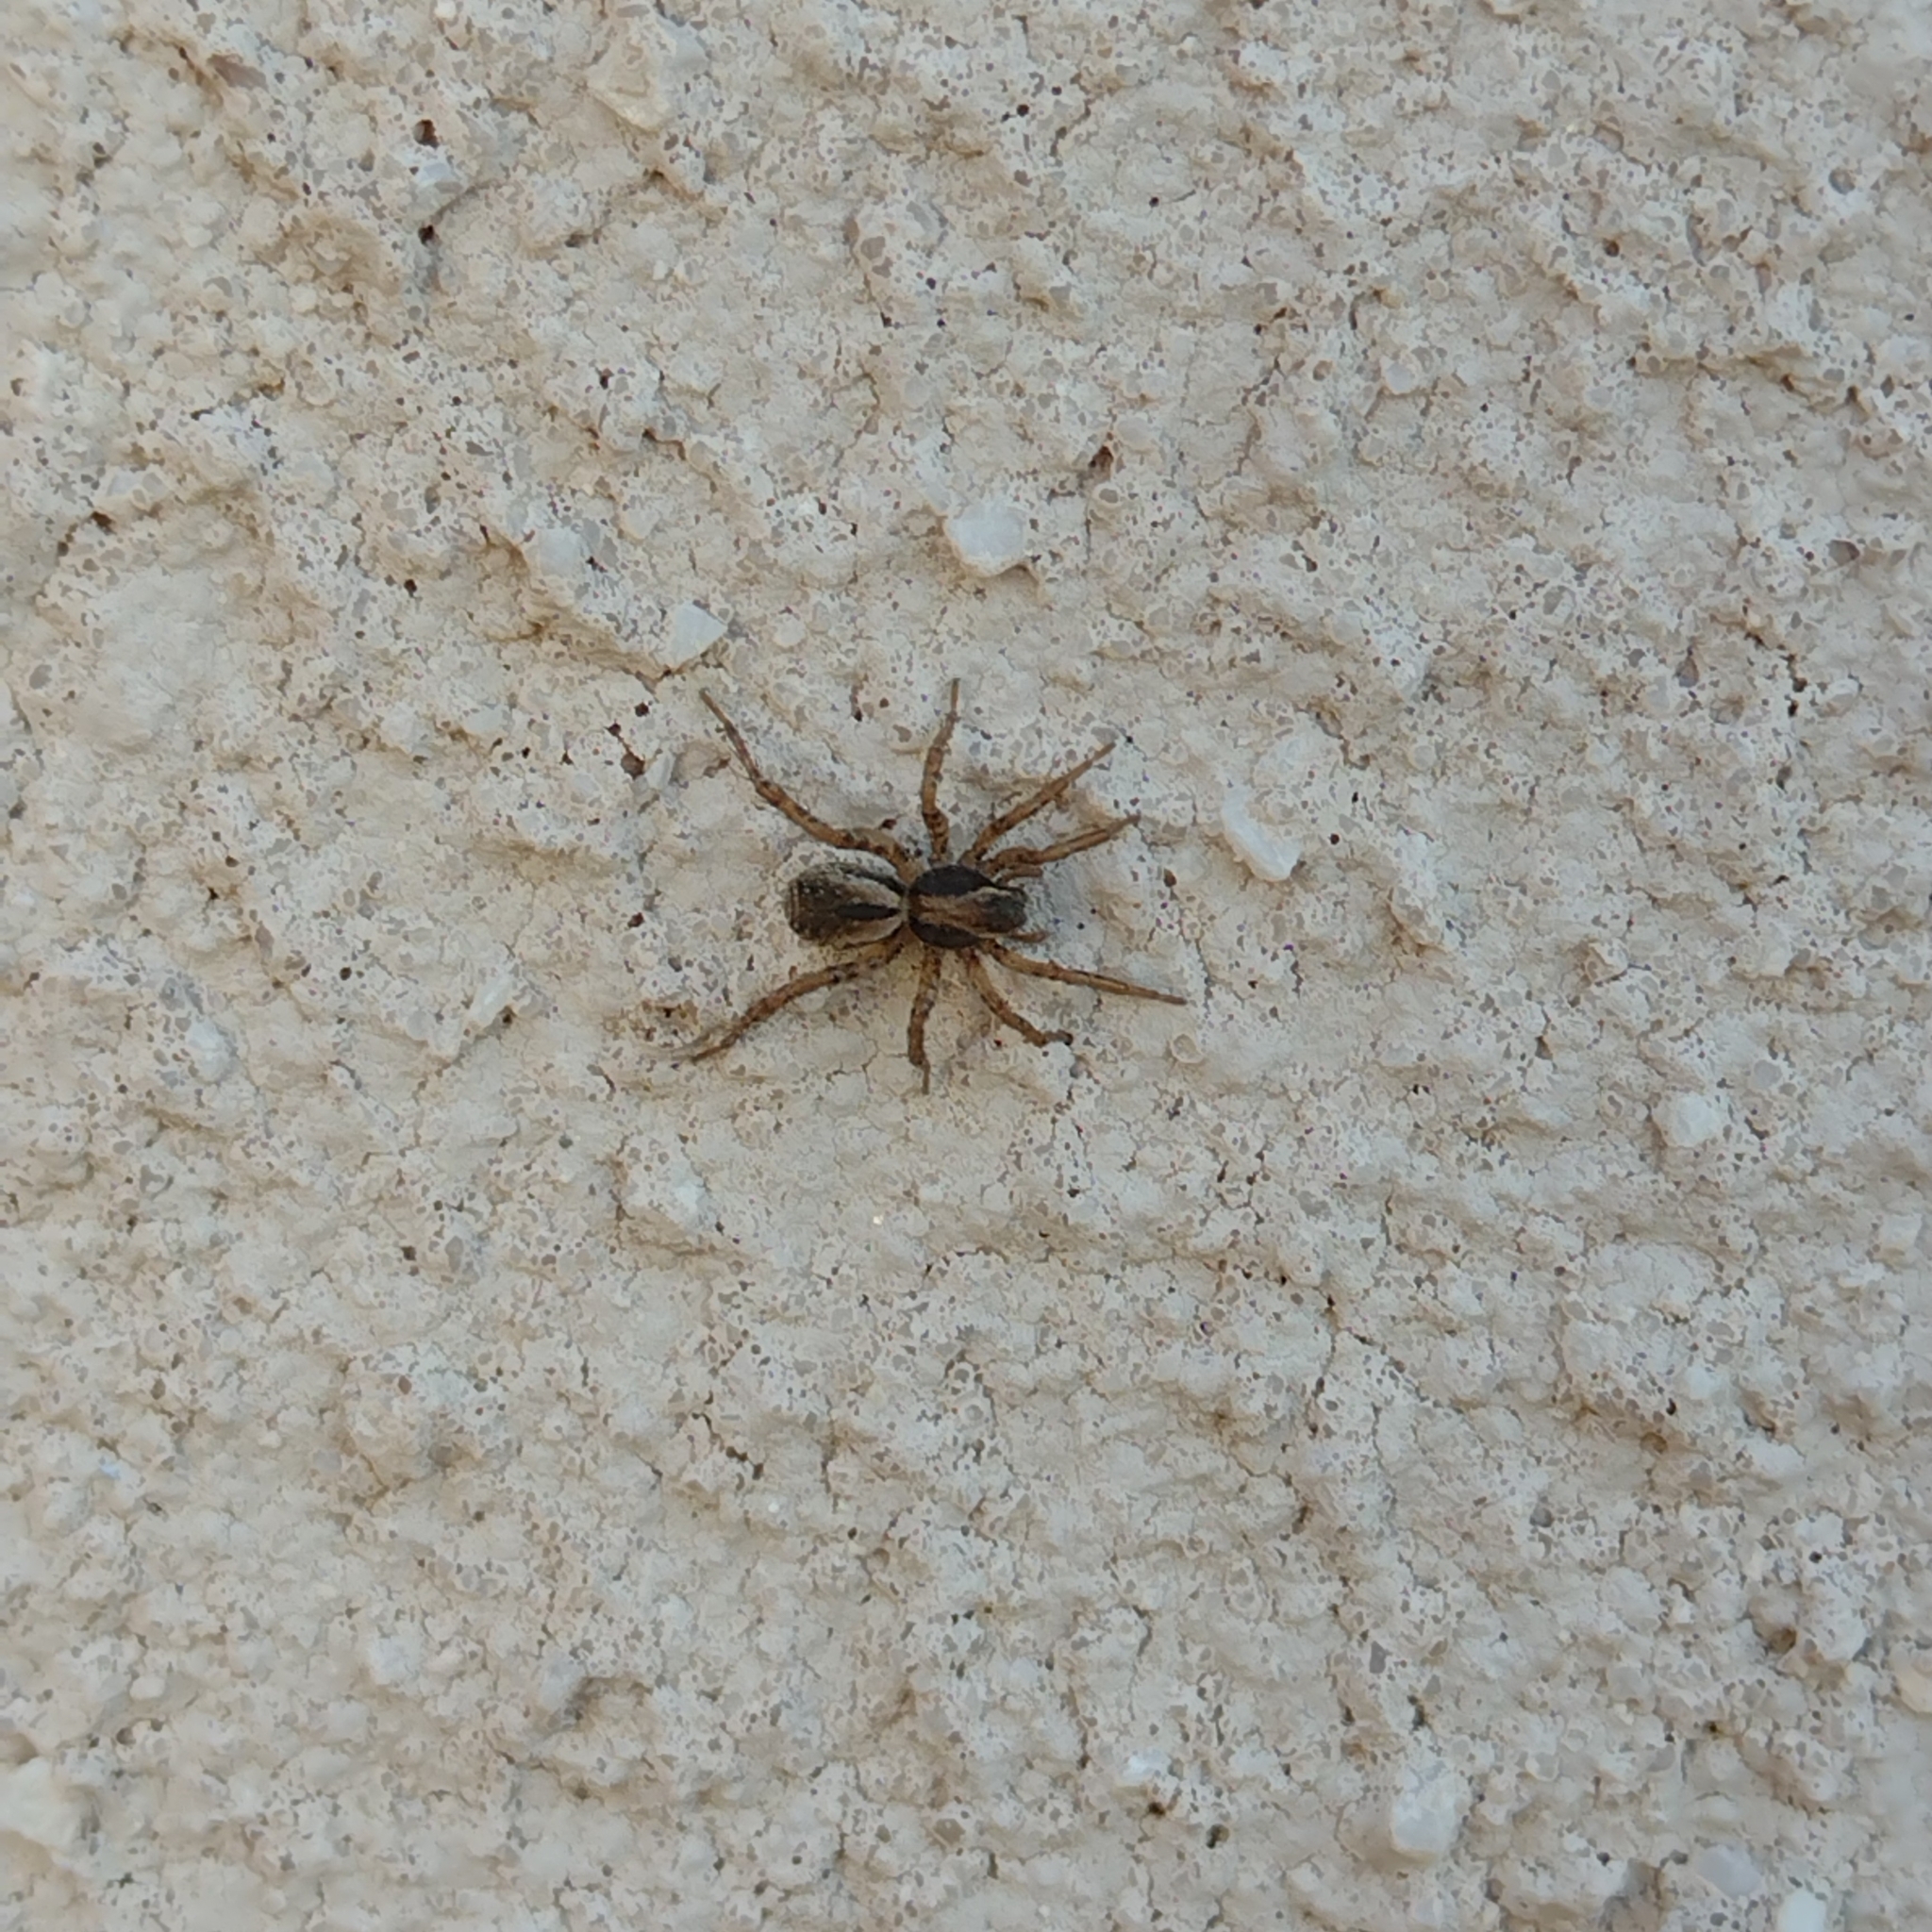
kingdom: Animalia
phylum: Arthropoda
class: Arachnida
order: Araneae
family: Lycosidae
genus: Abaycosa
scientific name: Abaycosa paraguensis
